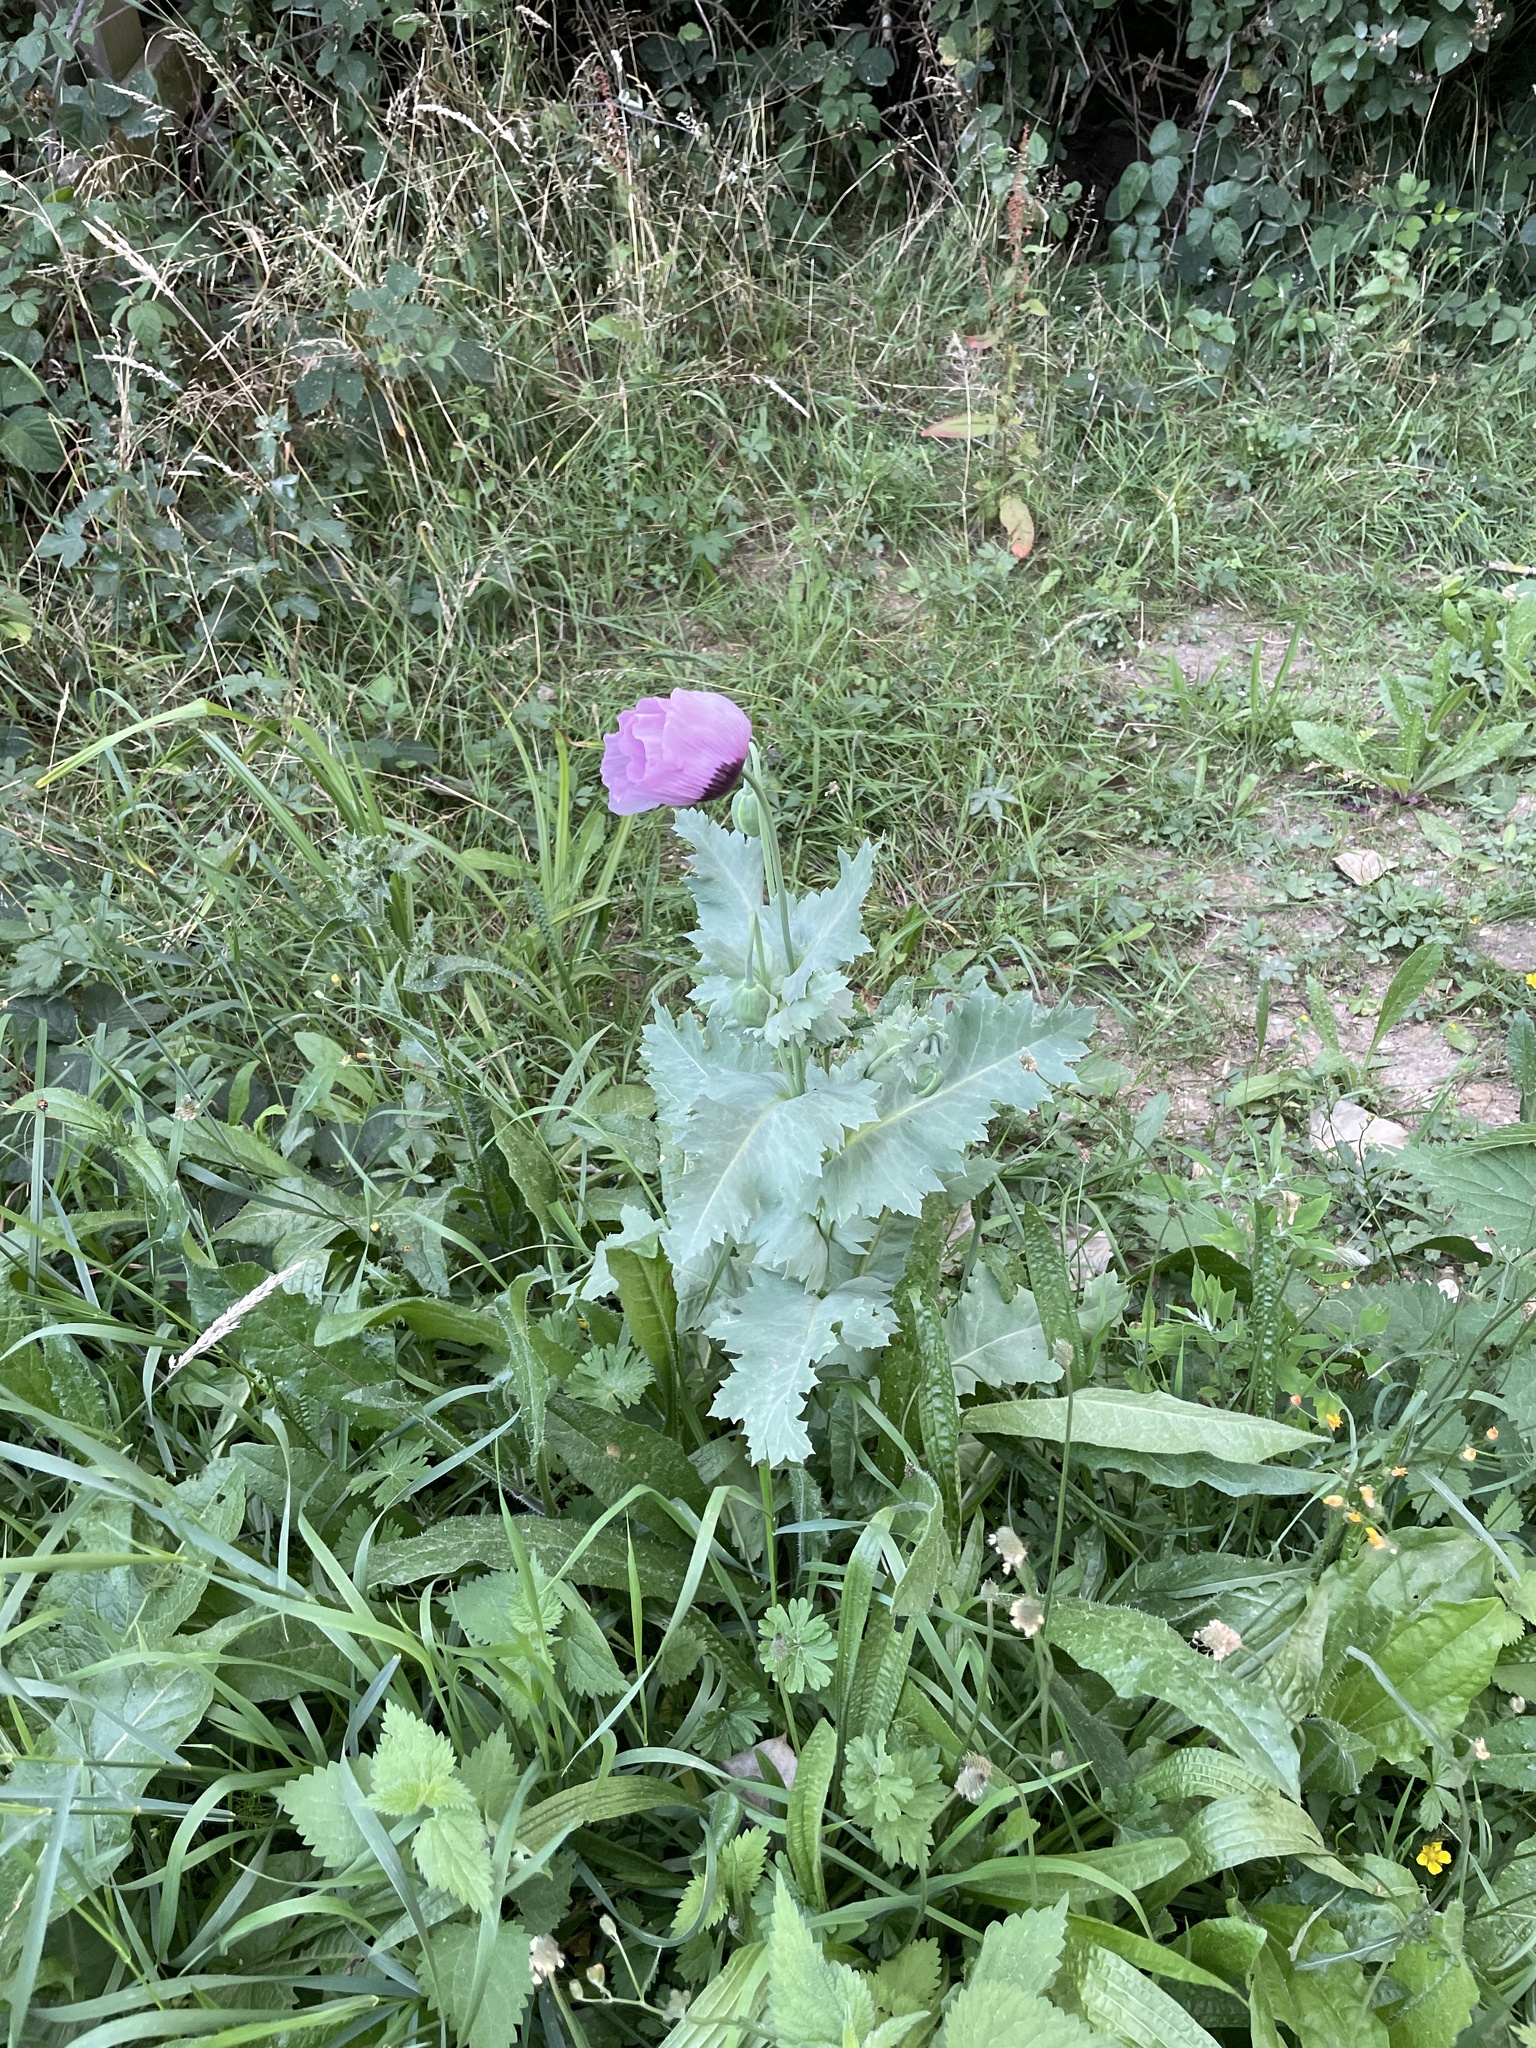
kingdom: Plantae
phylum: Tracheophyta
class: Magnoliopsida
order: Ranunculales
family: Papaveraceae
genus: Papaver
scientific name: Papaver somniferum
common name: Opium poppy
